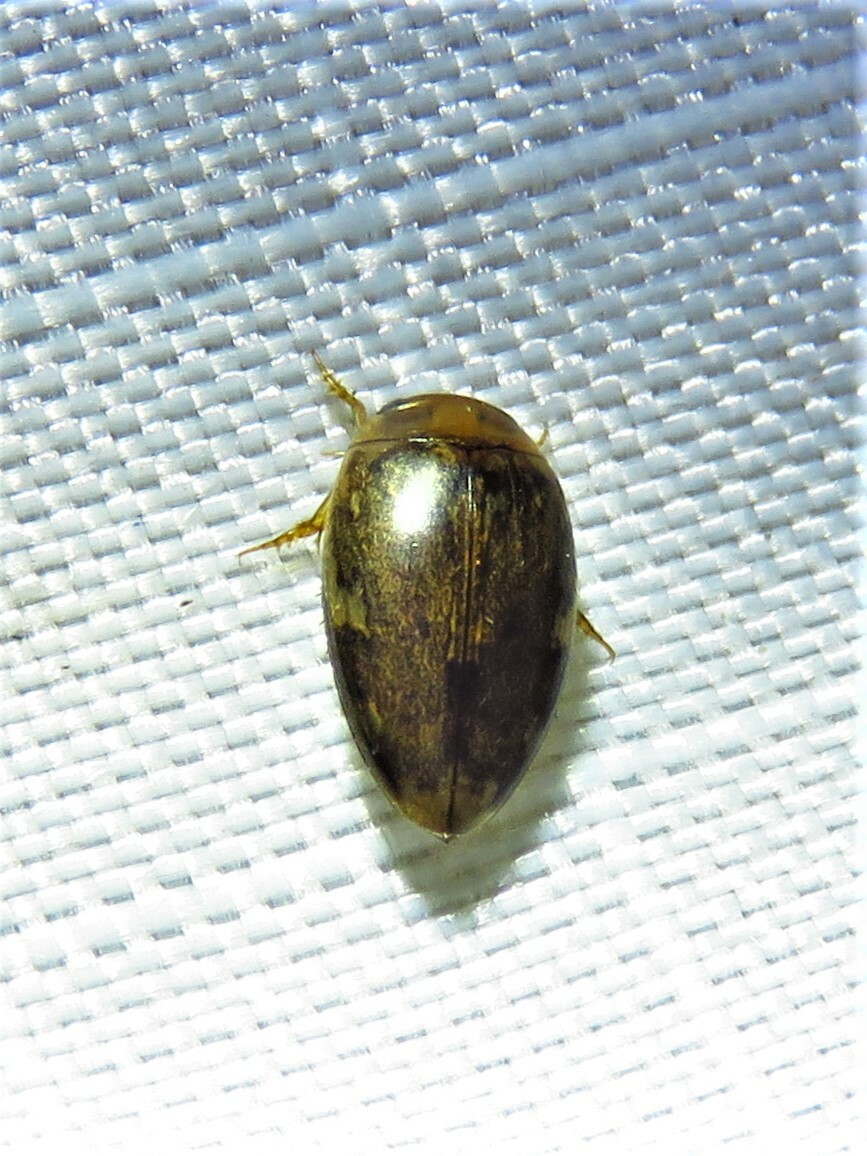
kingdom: Animalia
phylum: Arthropoda
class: Insecta
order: Coleoptera
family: Dytiscidae
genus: Laccophilus
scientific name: Laccophilus proximus
